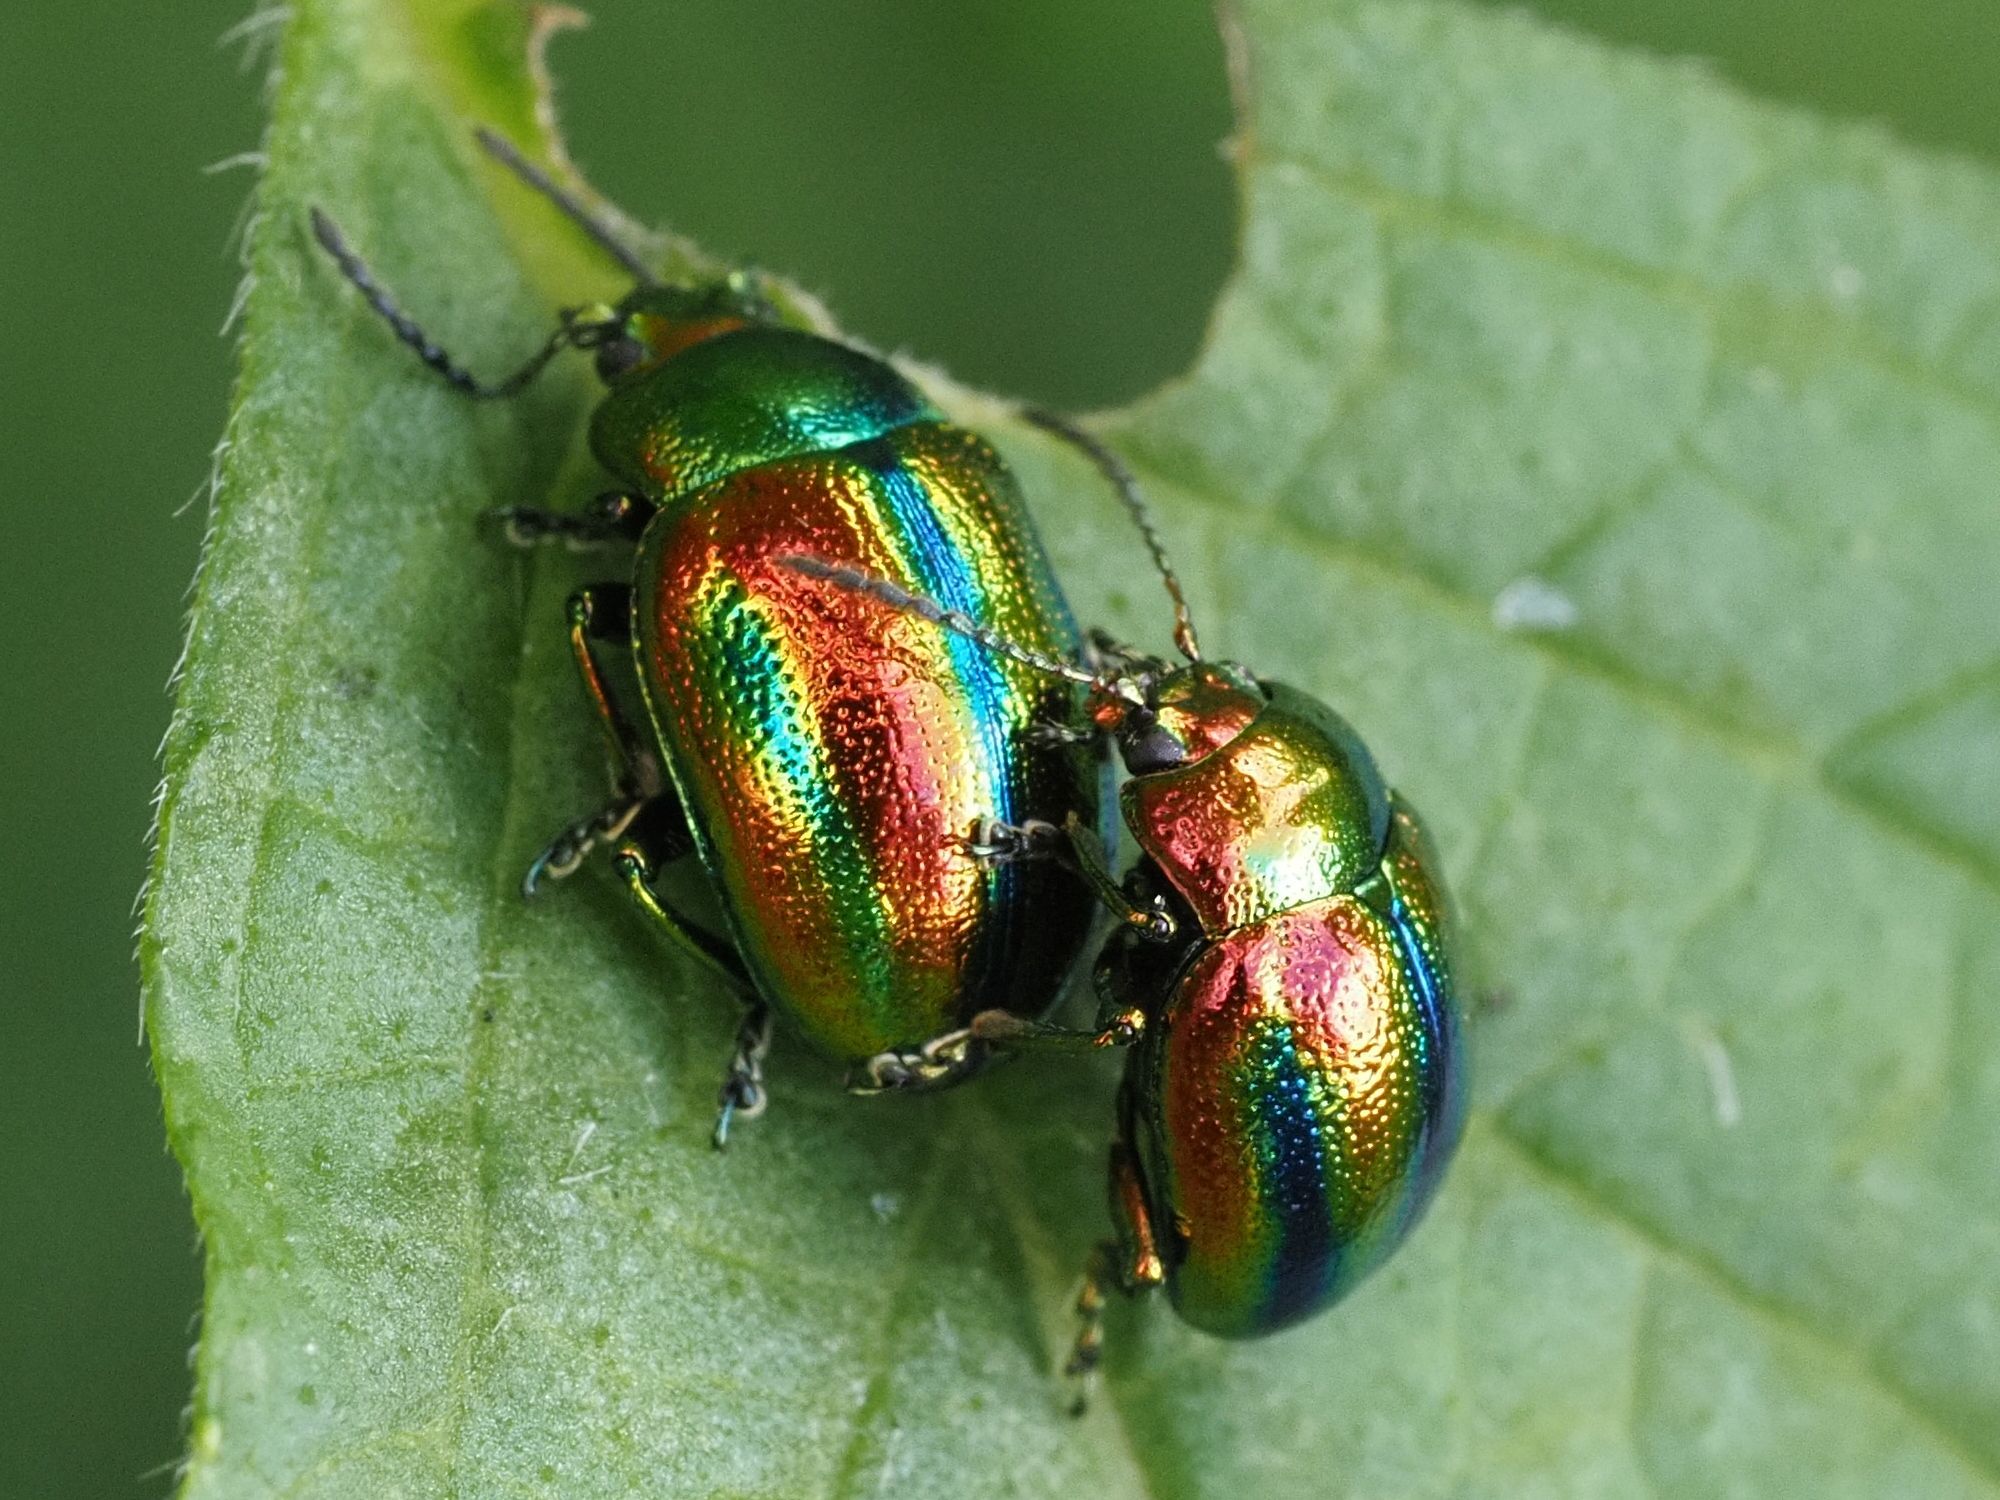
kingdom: Animalia
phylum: Arthropoda
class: Insecta
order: Coleoptera
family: Chrysomelidae
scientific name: Chrysomelidae
